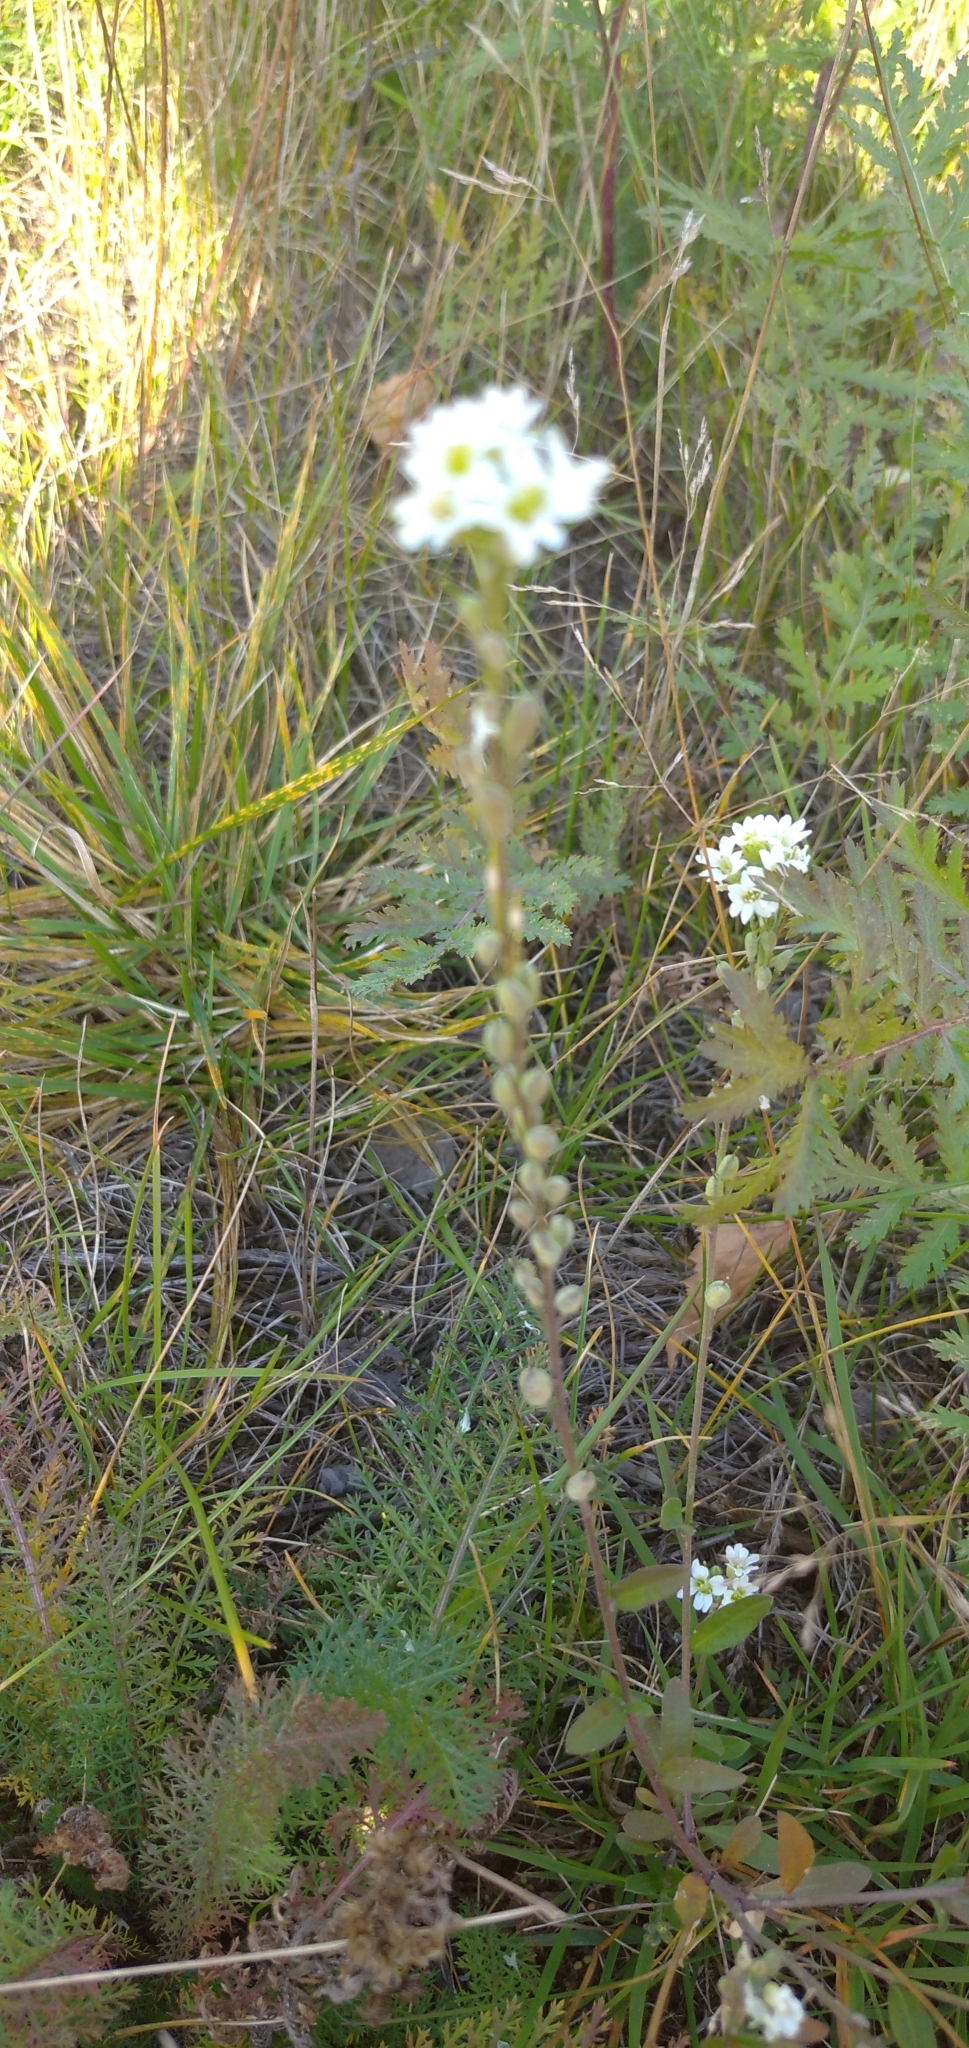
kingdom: Plantae
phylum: Tracheophyta
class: Magnoliopsida
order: Brassicales
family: Brassicaceae
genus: Berteroa
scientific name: Berteroa incana
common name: Hoary alison
